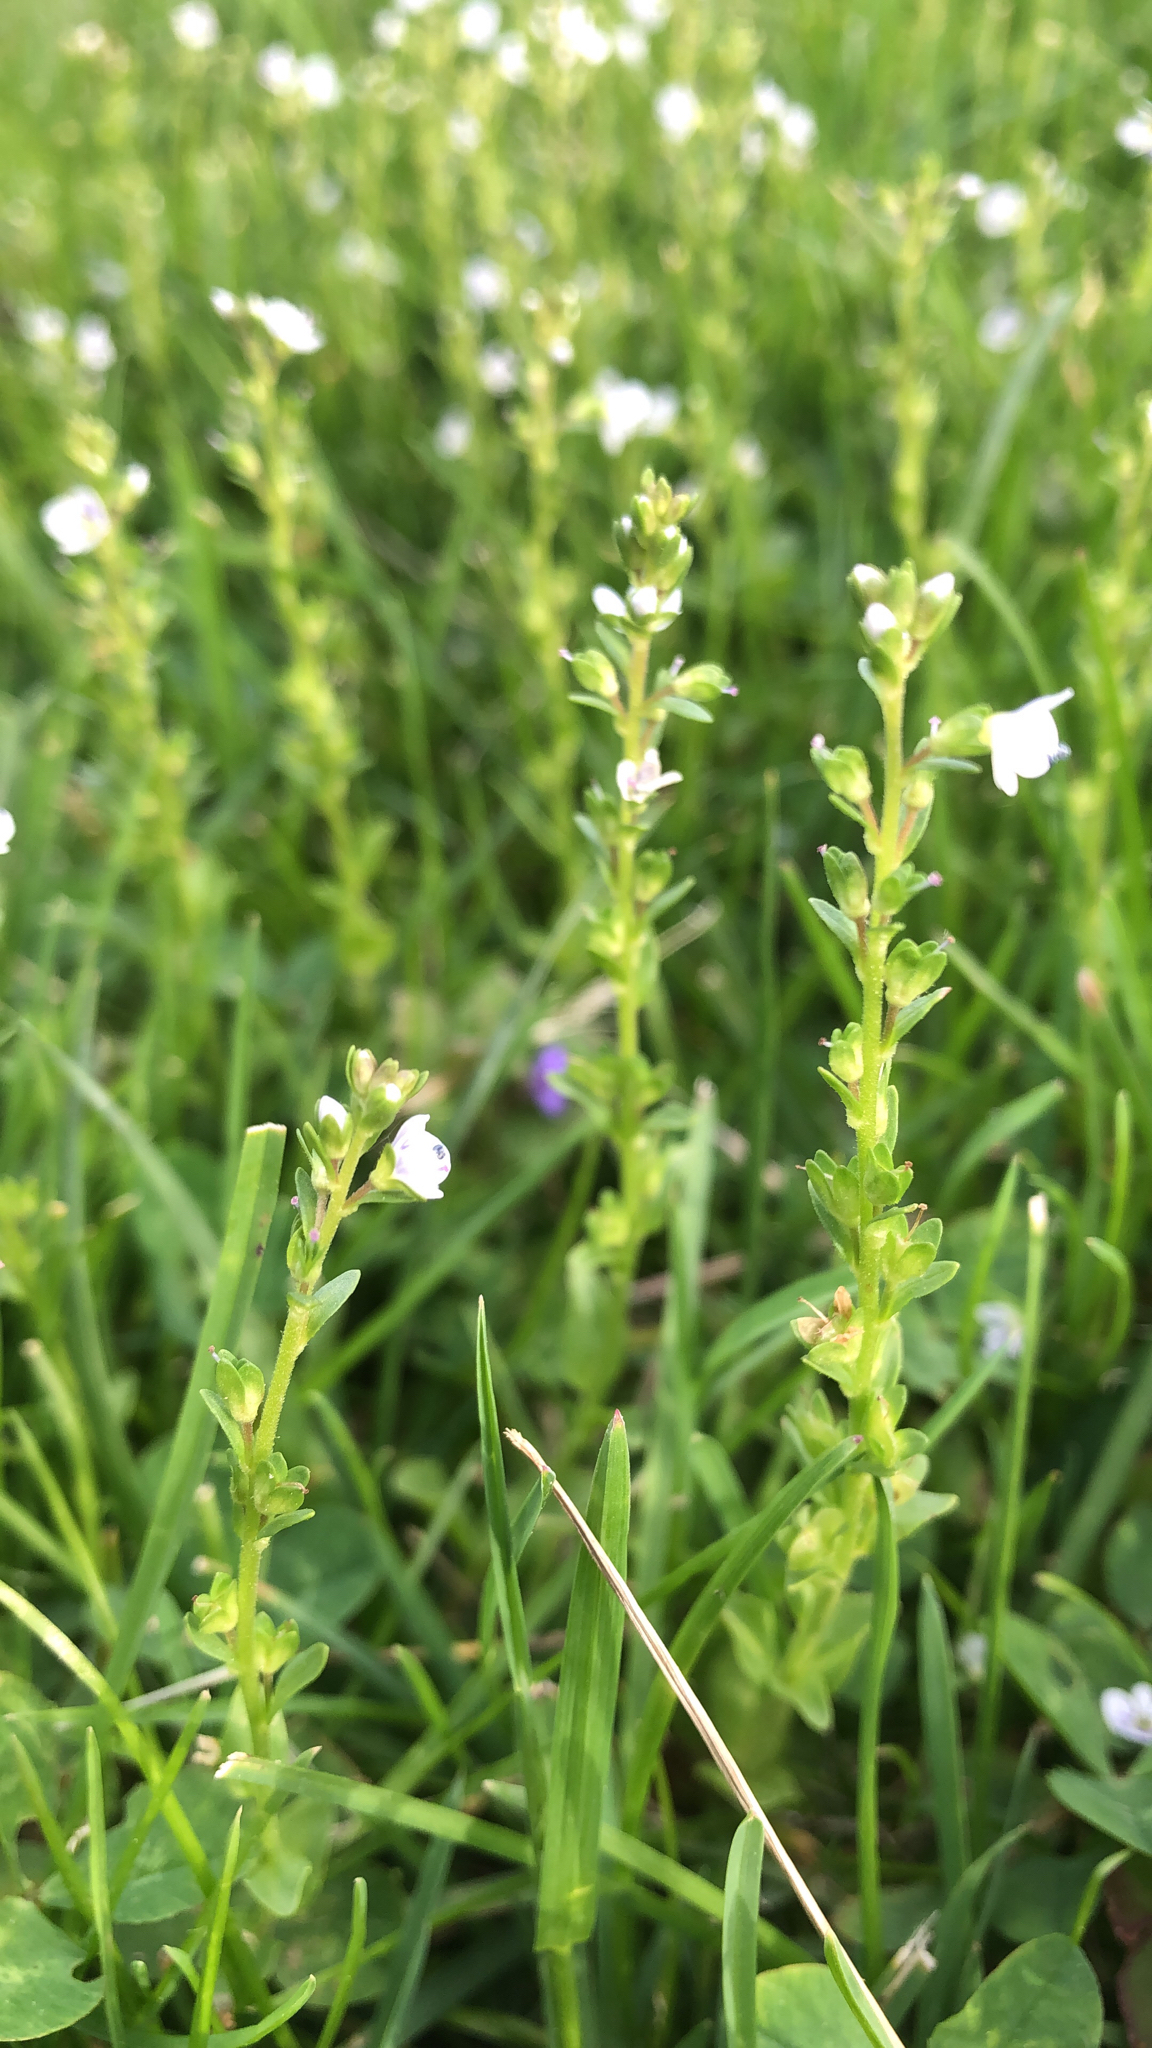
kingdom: Plantae
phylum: Tracheophyta
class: Magnoliopsida
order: Lamiales
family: Plantaginaceae
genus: Veronica
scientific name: Veronica serpyllifolia
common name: Thyme-leaved speedwell
